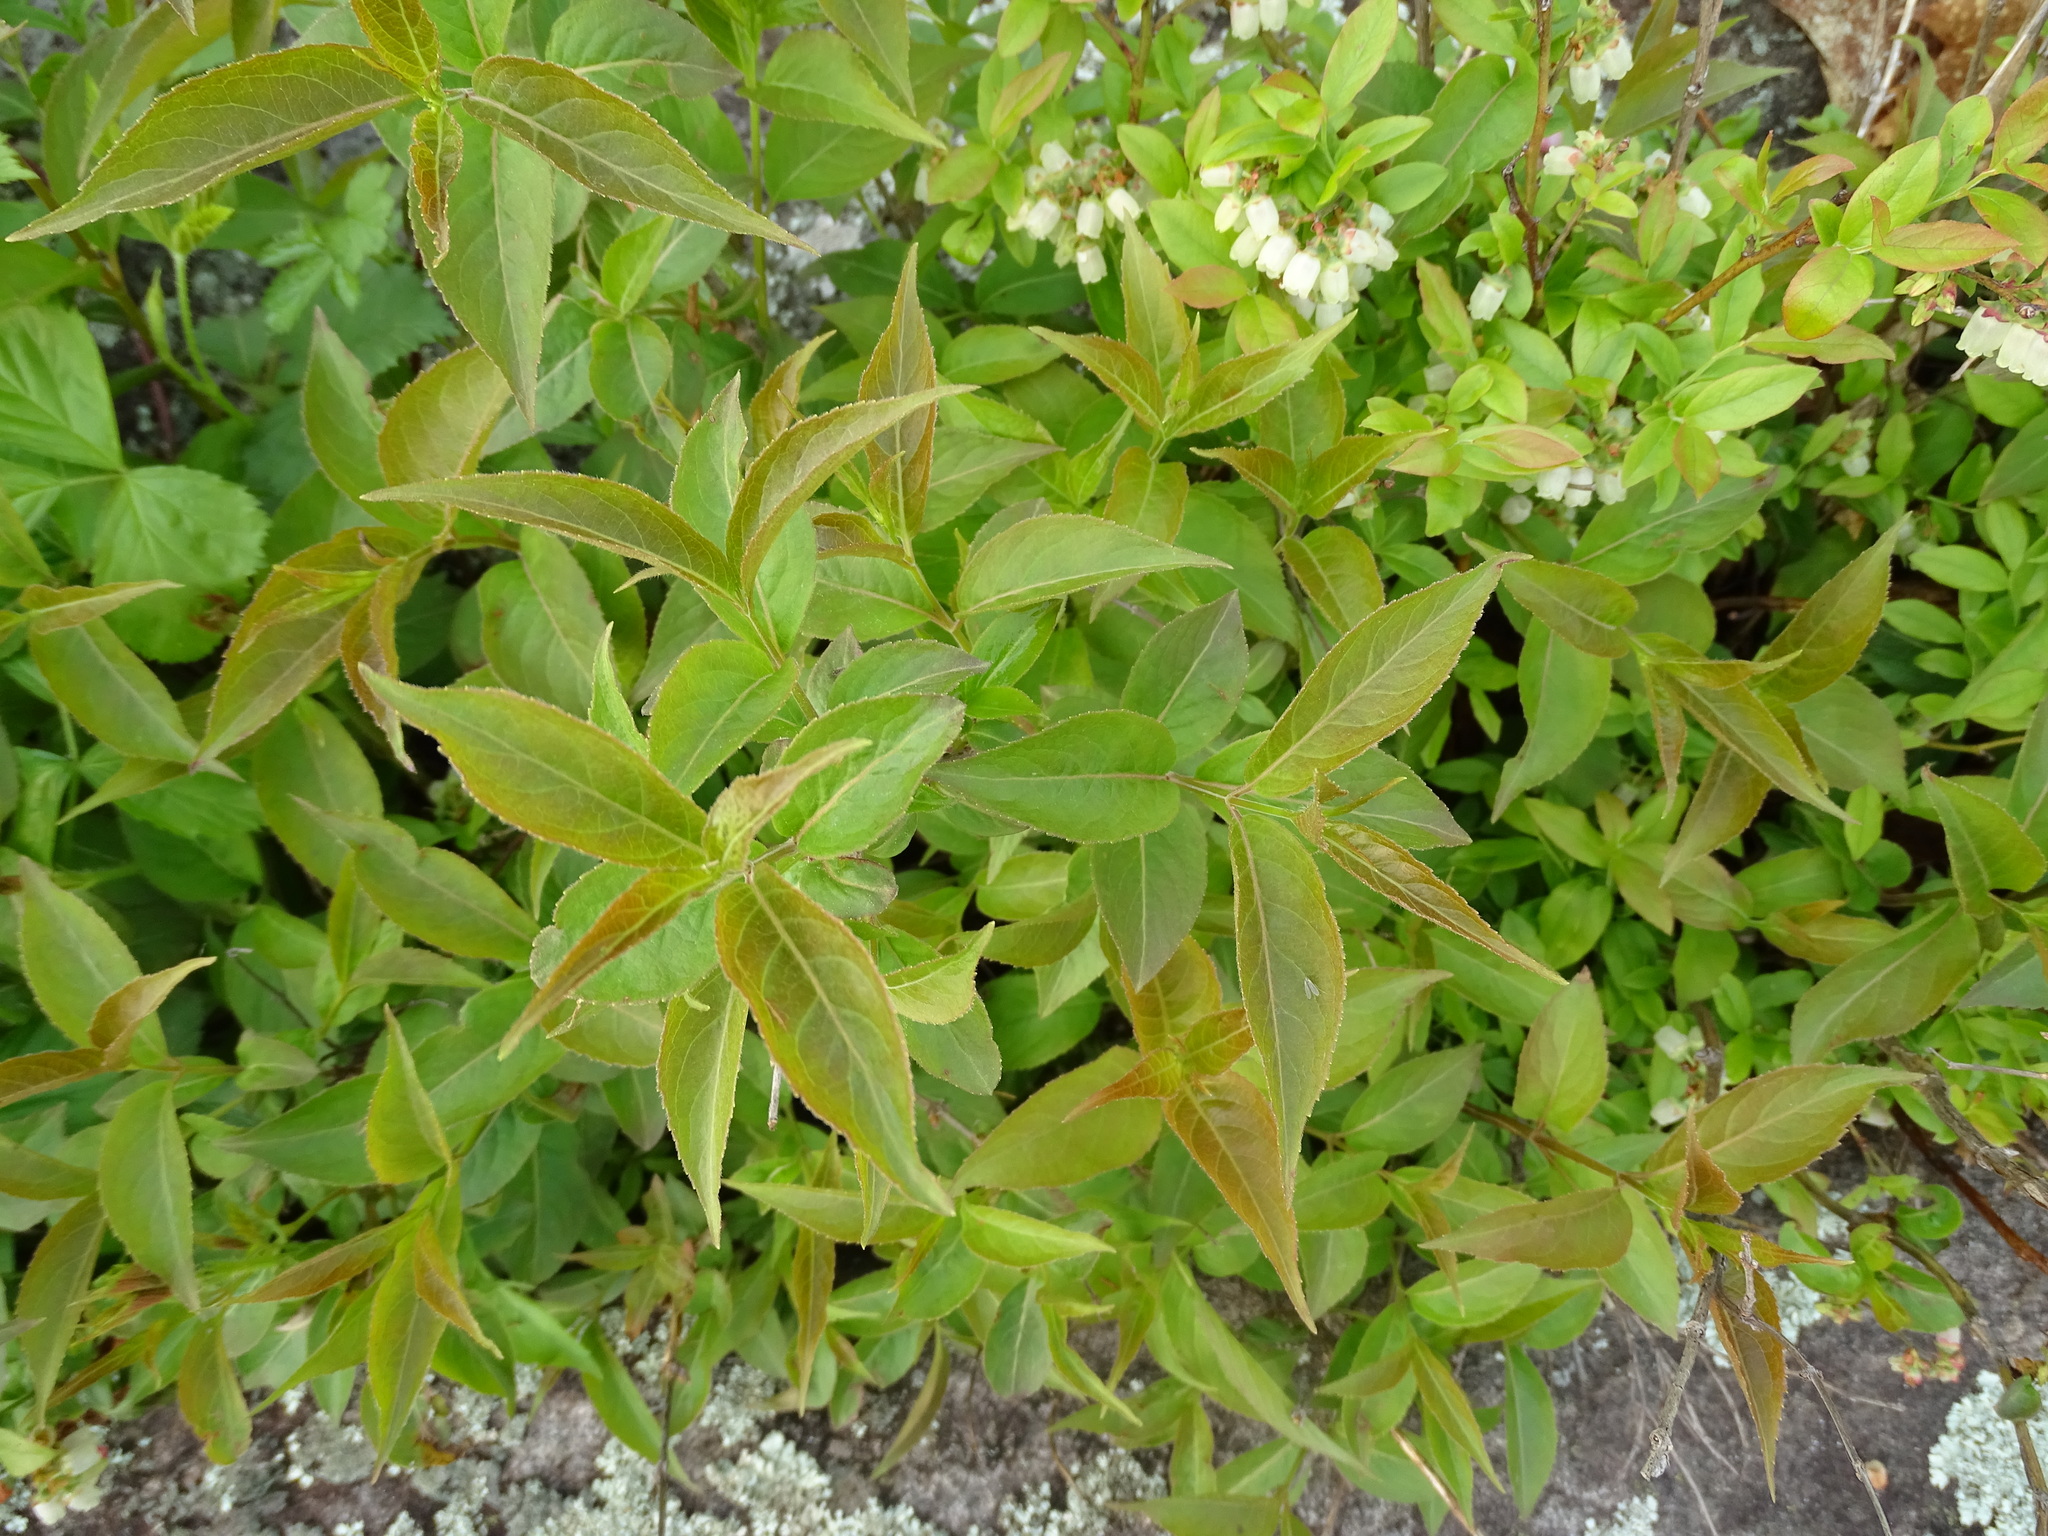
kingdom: Plantae
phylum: Tracheophyta
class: Magnoliopsida
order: Dipsacales
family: Caprifoliaceae
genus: Diervilla
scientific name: Diervilla lonicera
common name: Bush-honeysuckle
